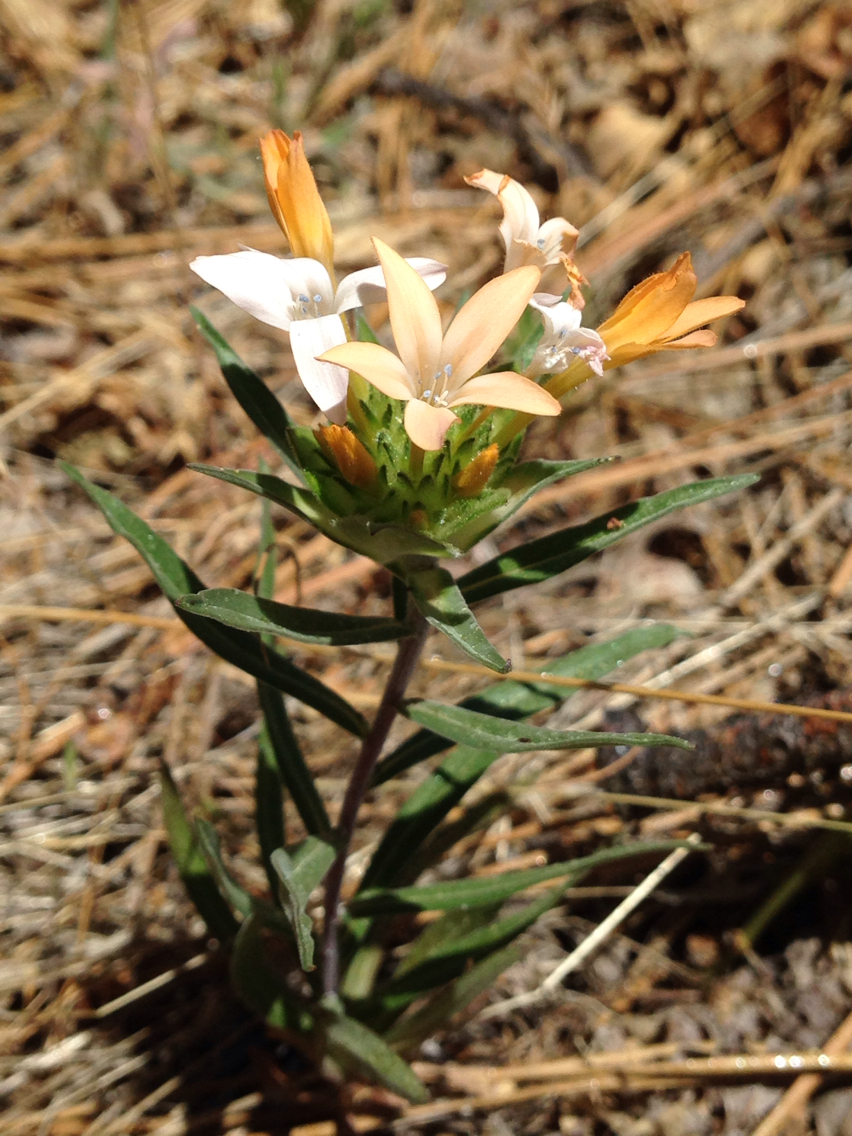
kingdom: Plantae
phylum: Tracheophyta
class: Magnoliopsida
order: Ericales
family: Polemoniaceae
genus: Collomia
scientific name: Collomia grandiflora
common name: California strawflower
